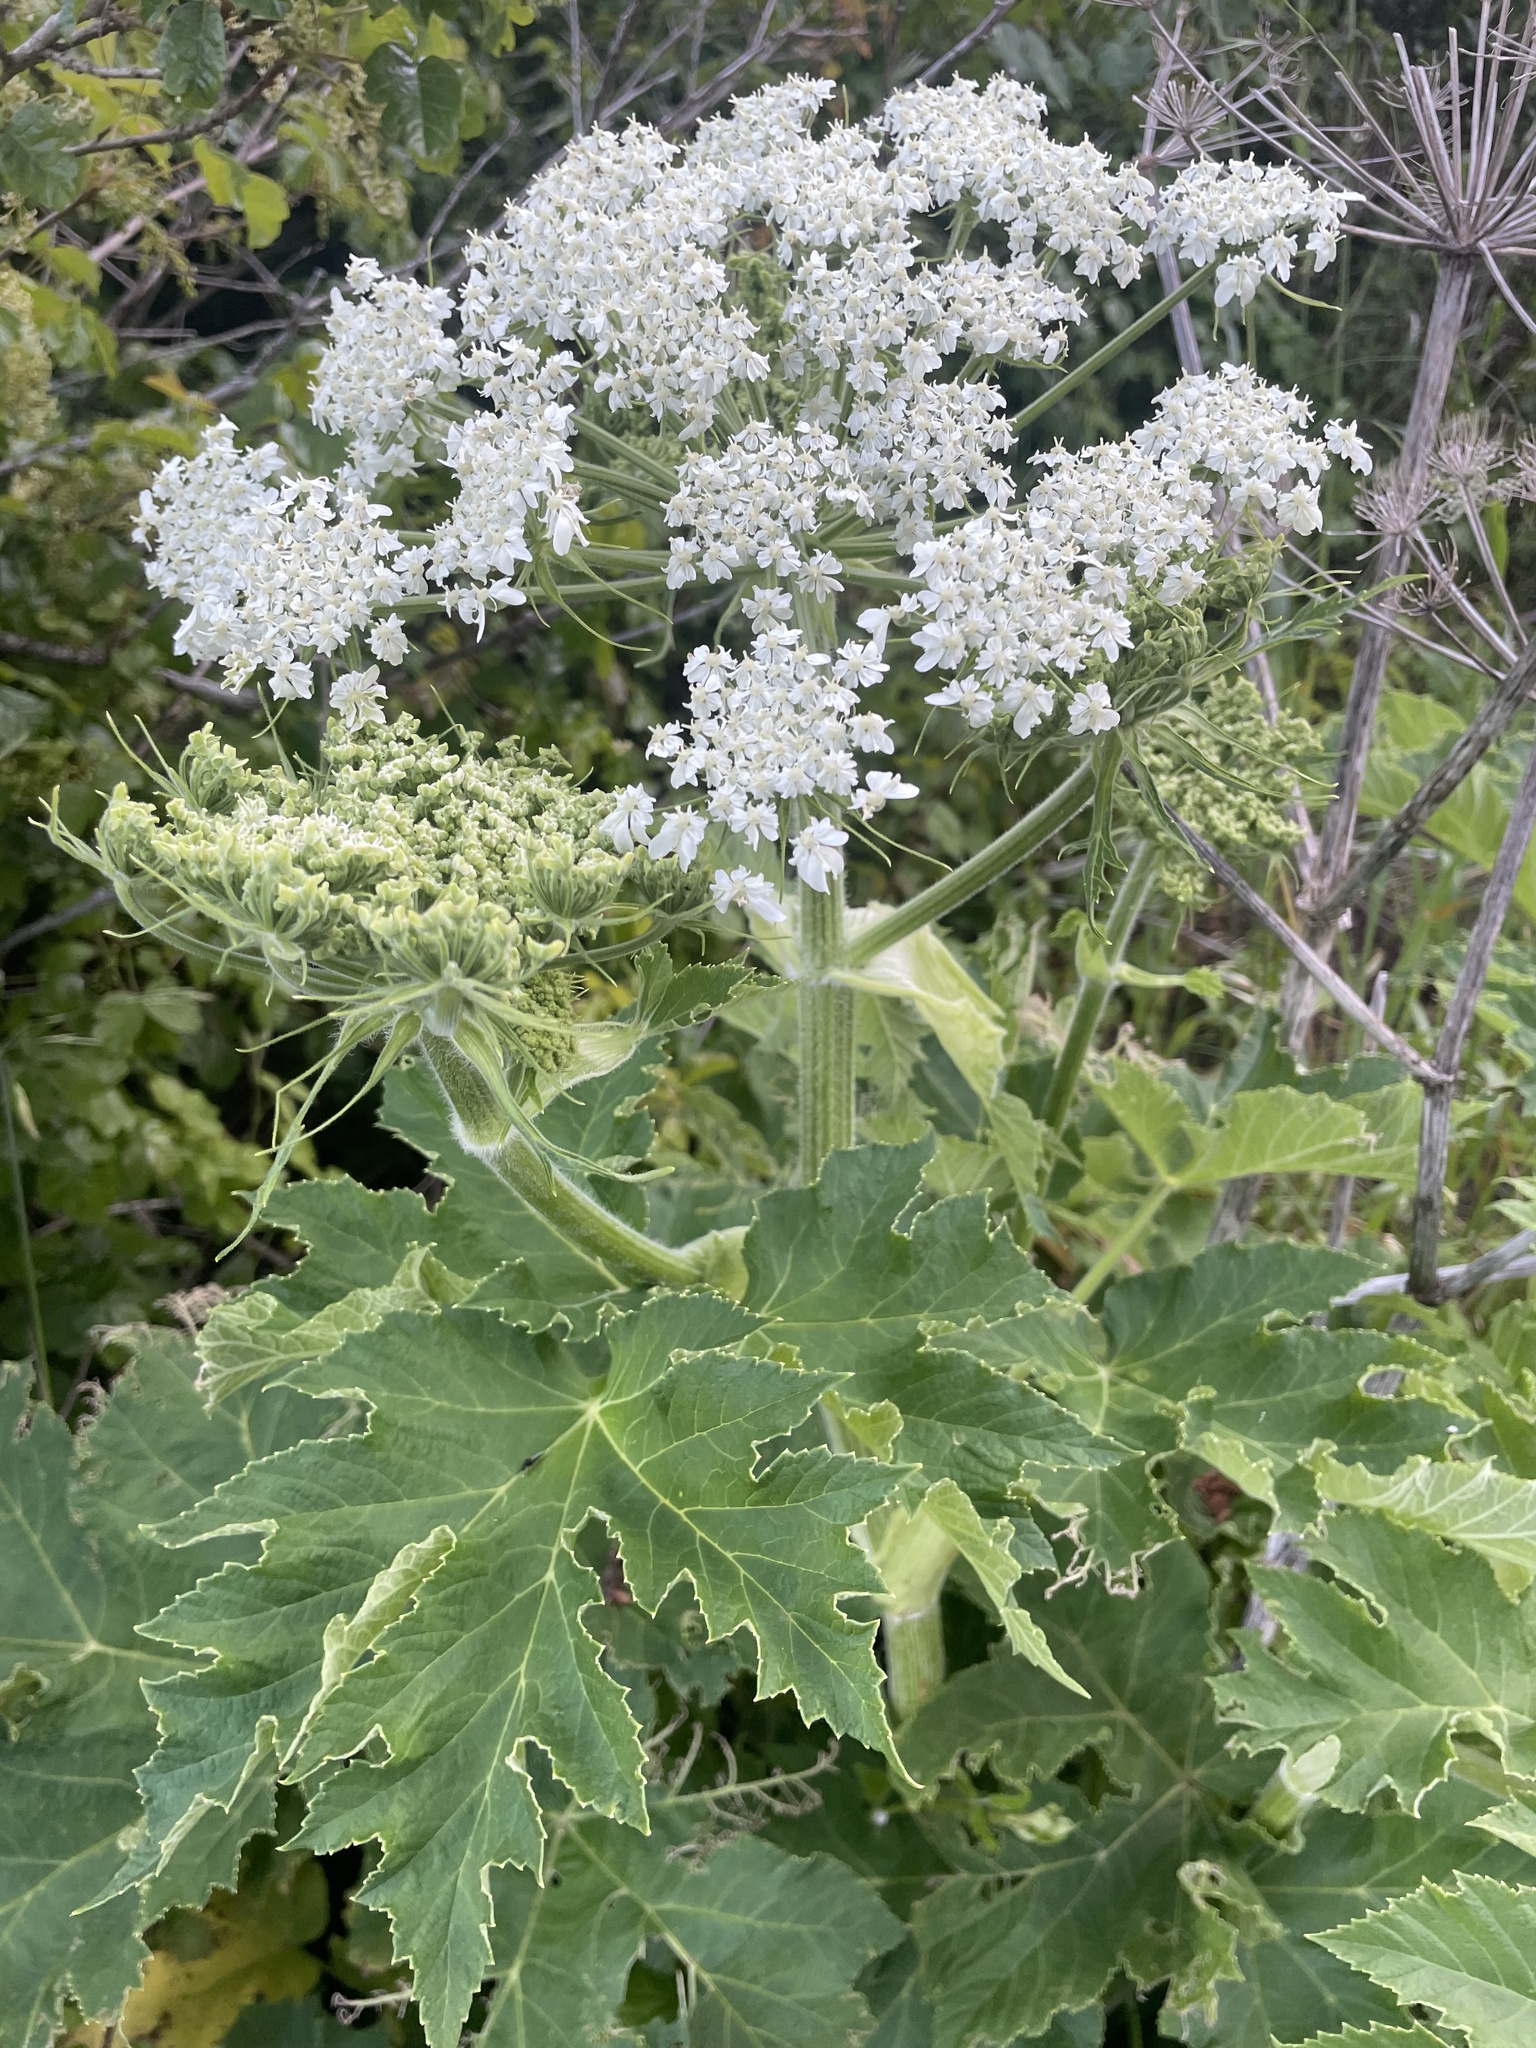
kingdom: Plantae
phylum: Tracheophyta
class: Magnoliopsida
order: Apiales
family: Apiaceae
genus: Heracleum
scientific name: Heracleum maximum
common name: American cow parsnip
